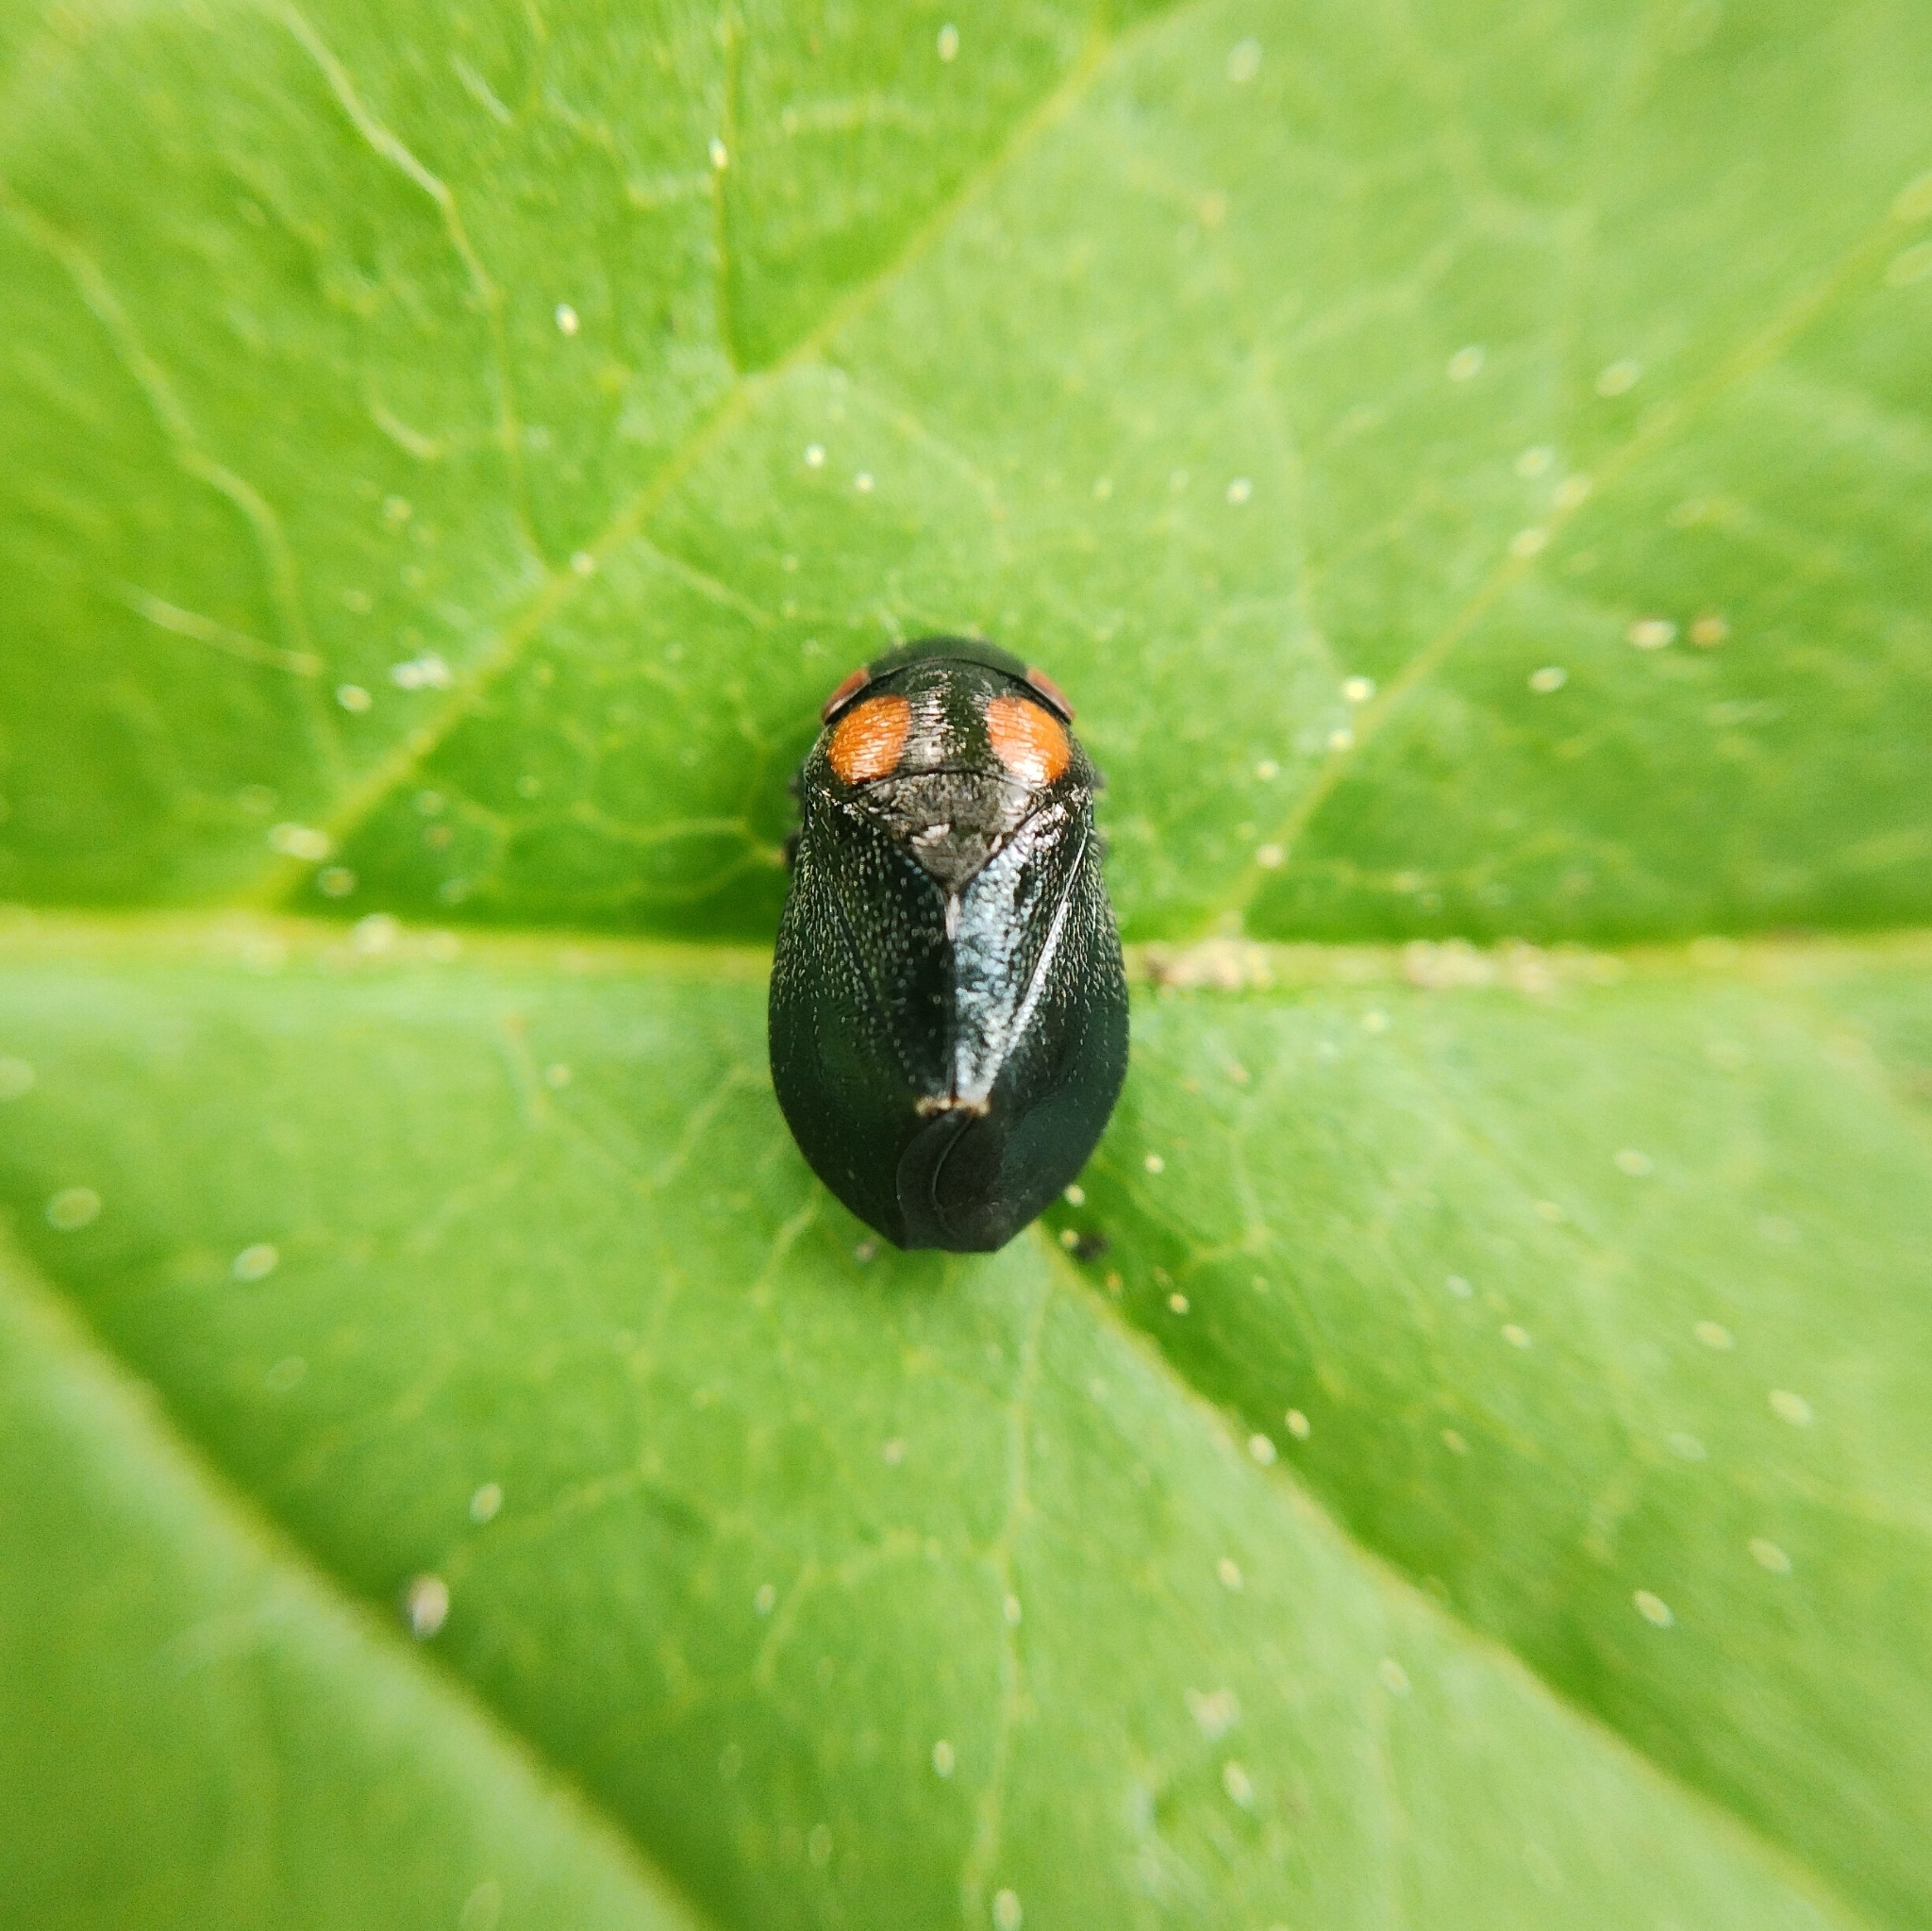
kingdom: Animalia
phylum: Arthropoda
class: Insecta
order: Hemiptera
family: Cicadellidae
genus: Penthimia
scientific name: Penthimia nigra
